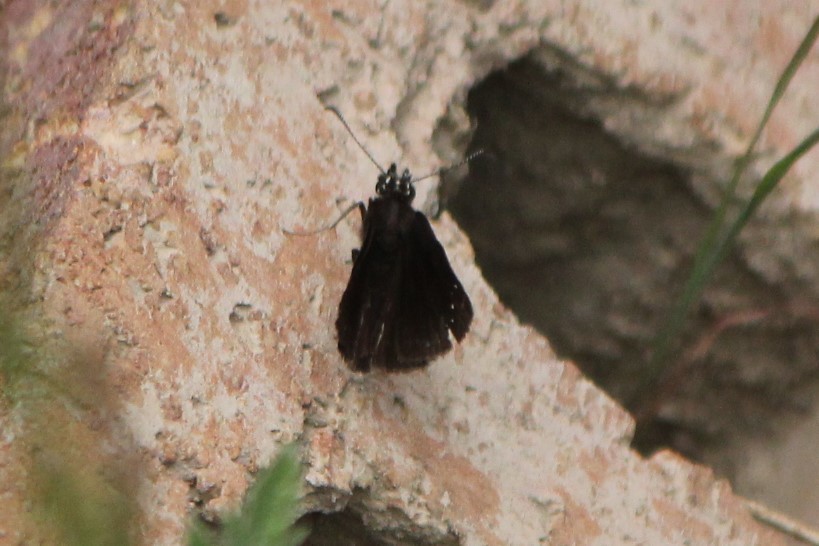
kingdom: Animalia
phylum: Arthropoda
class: Insecta
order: Lepidoptera
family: Hesperiidae
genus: Pholisora
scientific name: Pholisora catullus
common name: Common sootywing
